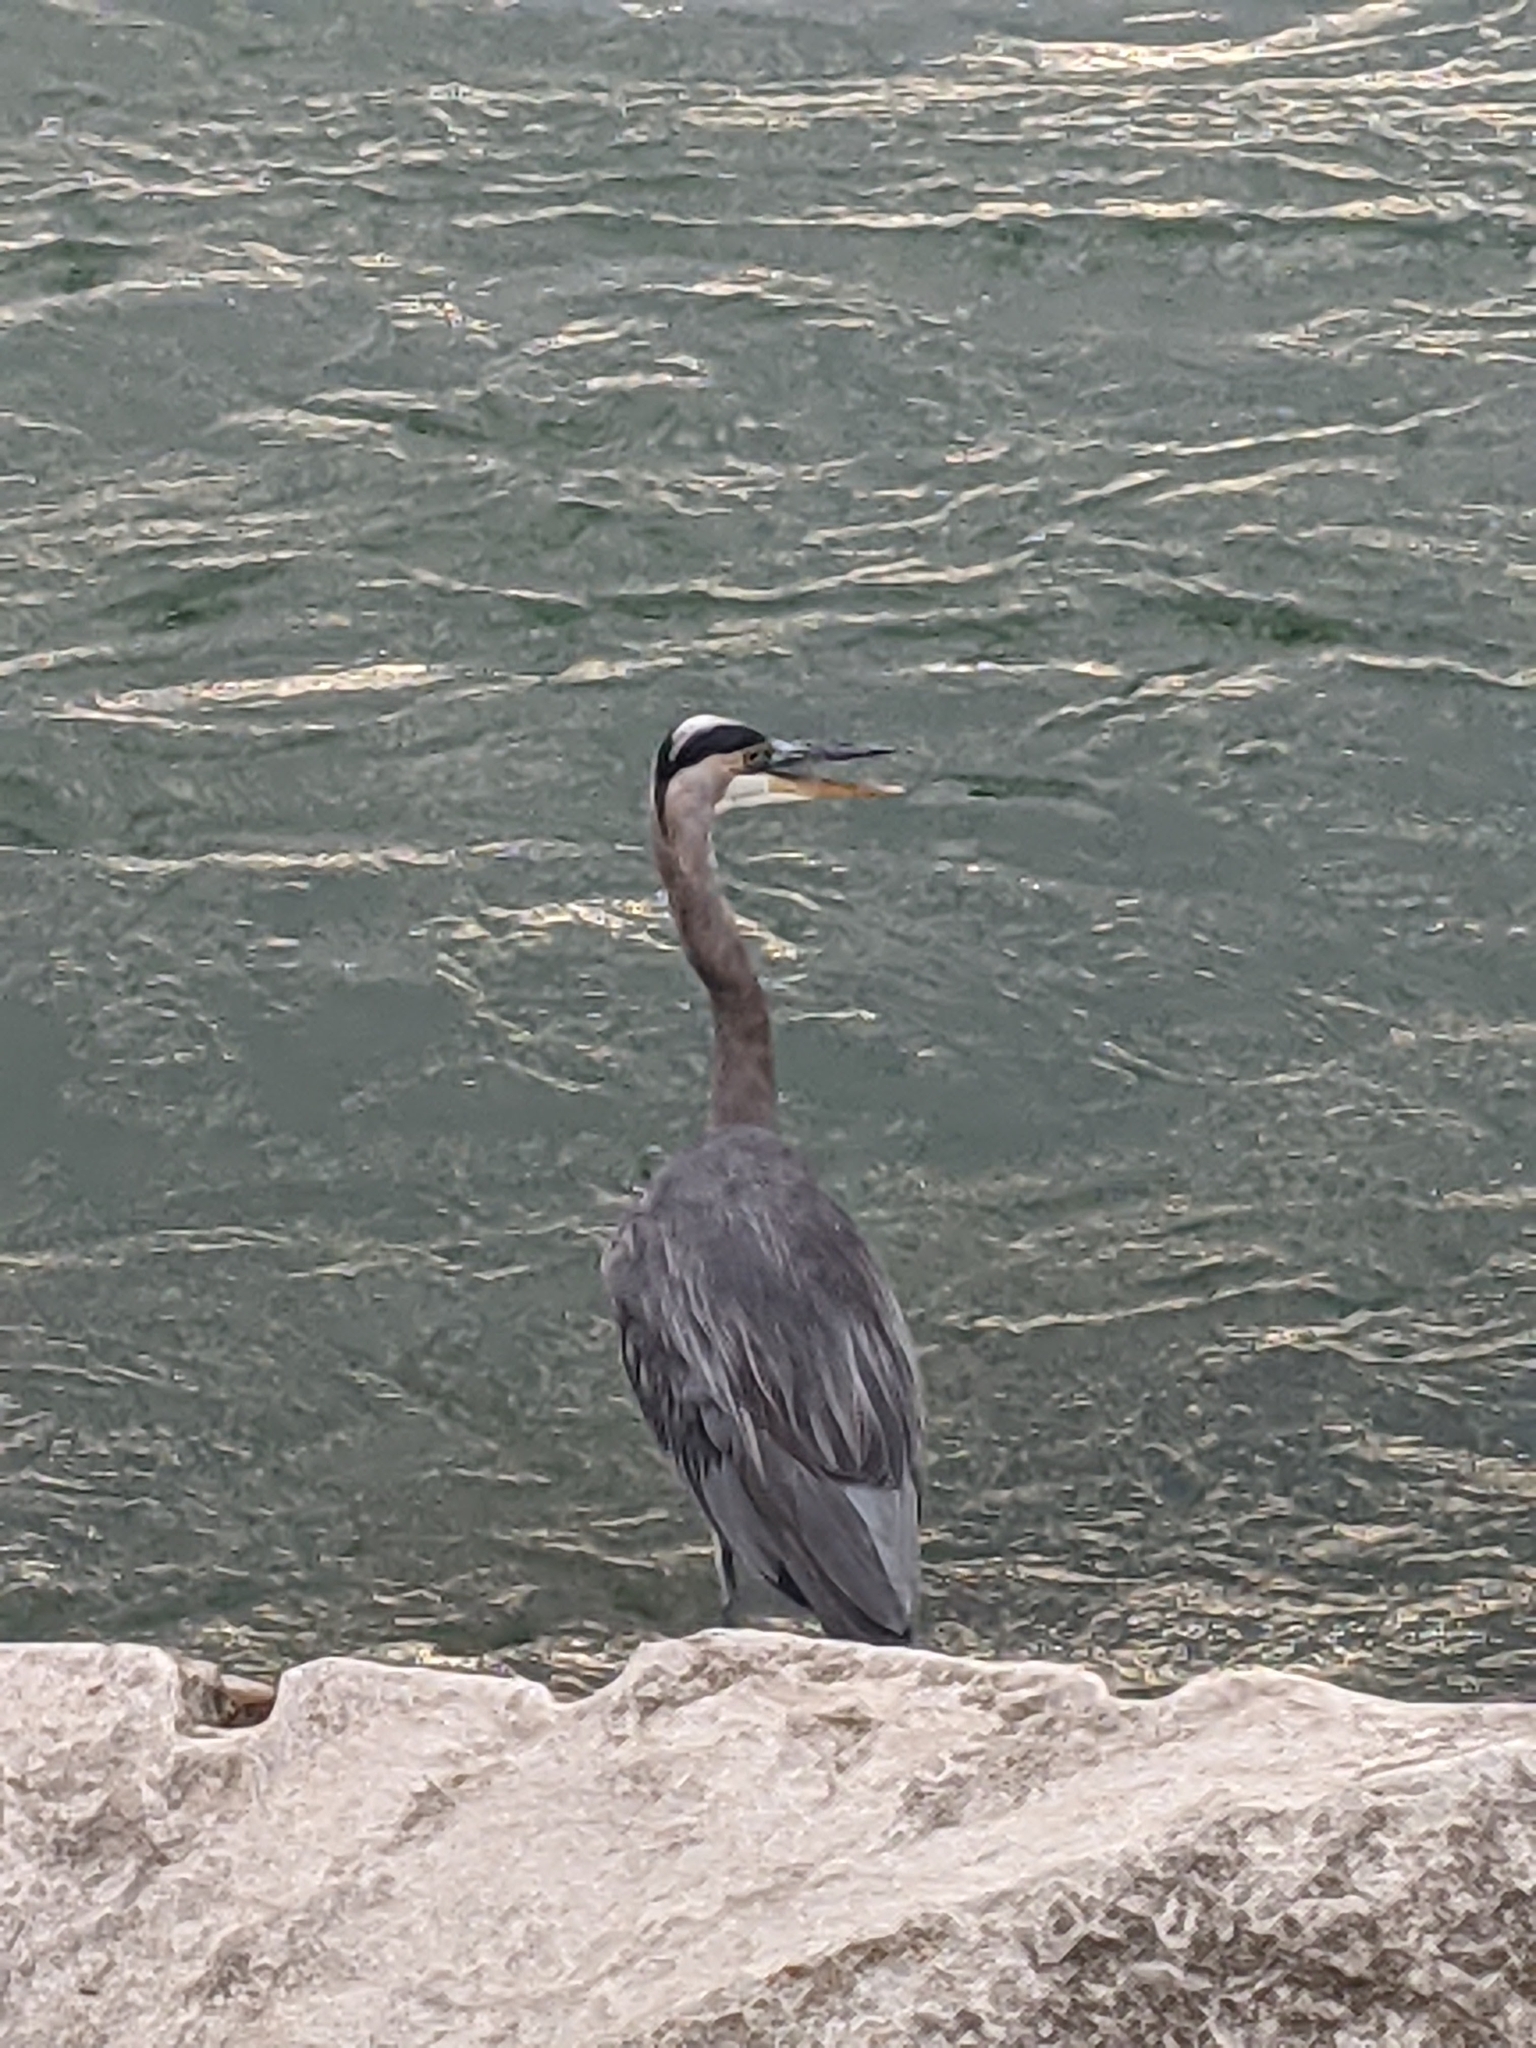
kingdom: Animalia
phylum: Chordata
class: Aves
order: Pelecaniformes
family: Ardeidae
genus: Ardea
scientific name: Ardea herodias
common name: Great blue heron
